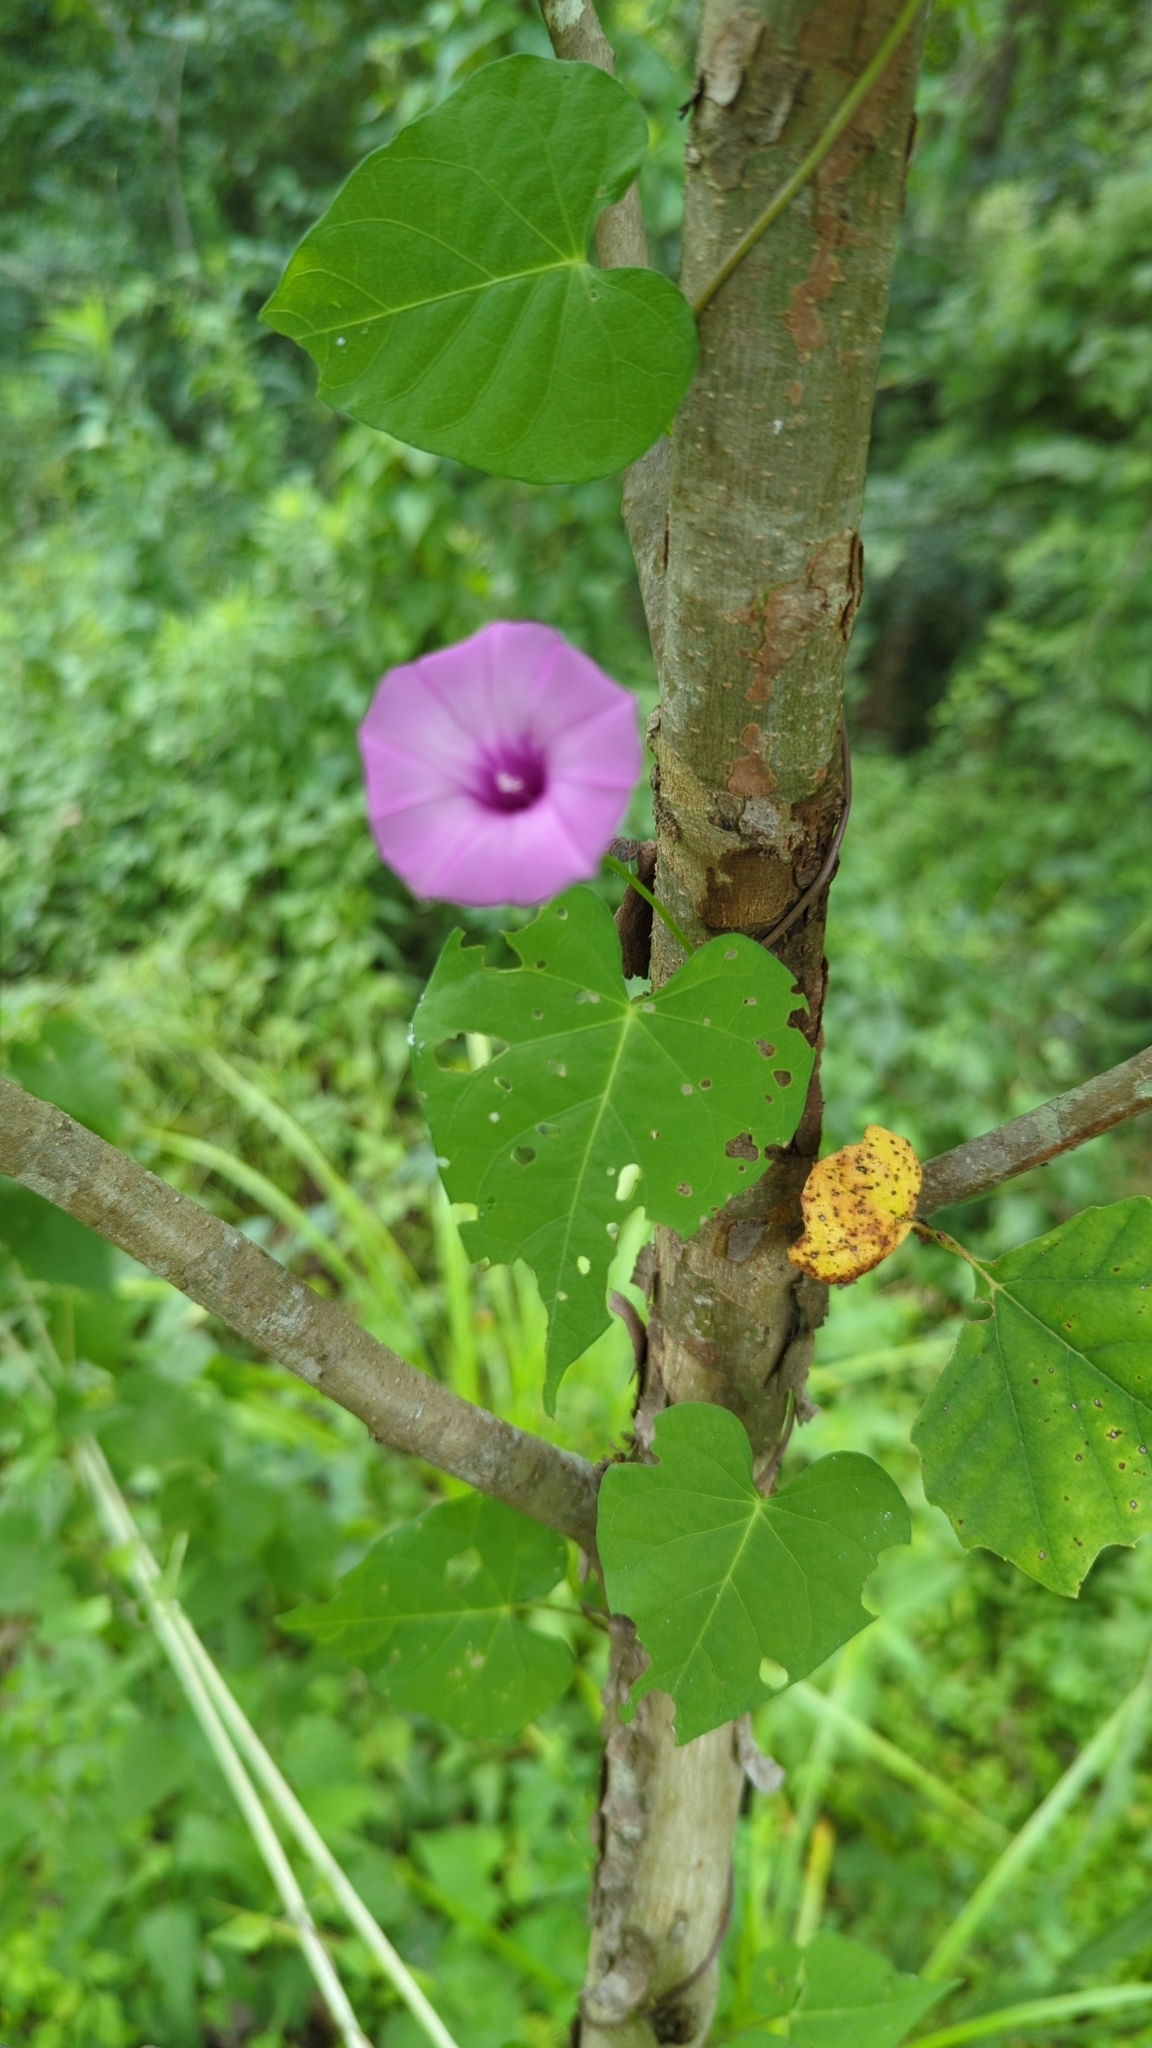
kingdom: Plantae
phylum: Tracheophyta
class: Magnoliopsida
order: Solanales
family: Convolvulaceae
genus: Ipomoea
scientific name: Ipomoea cordatotriloba
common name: Cotton morning glory
